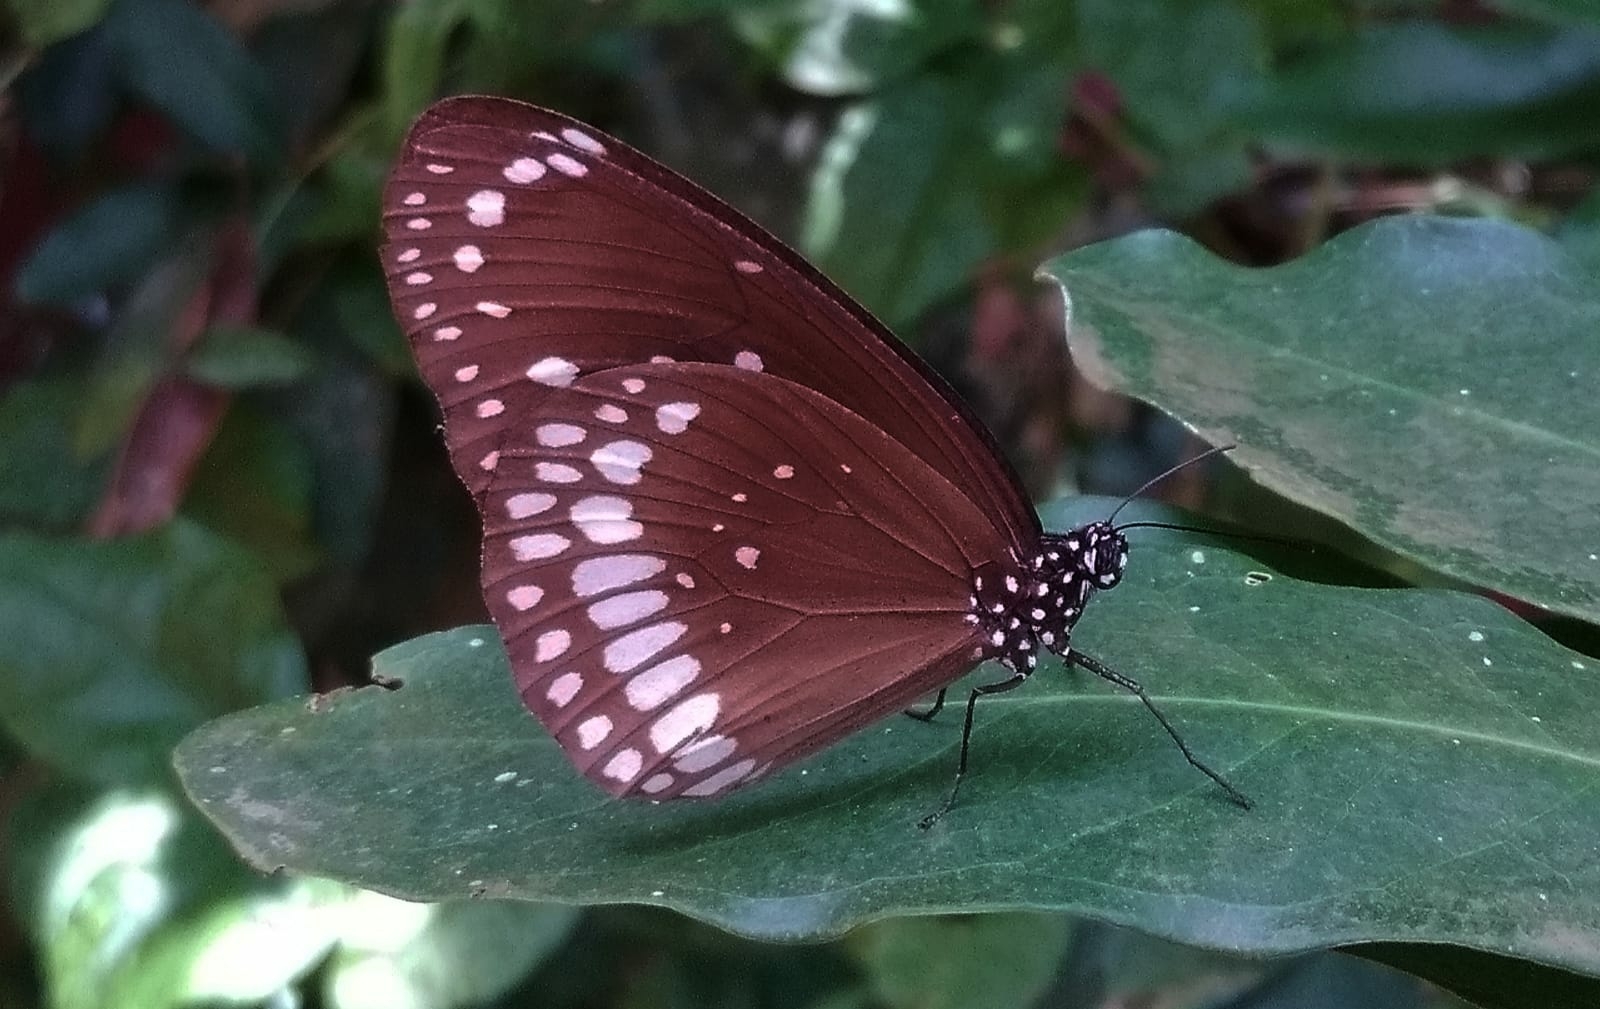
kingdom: Animalia
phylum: Arthropoda
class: Insecta
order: Lepidoptera
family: Nymphalidae
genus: Euploea
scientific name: Euploea core
